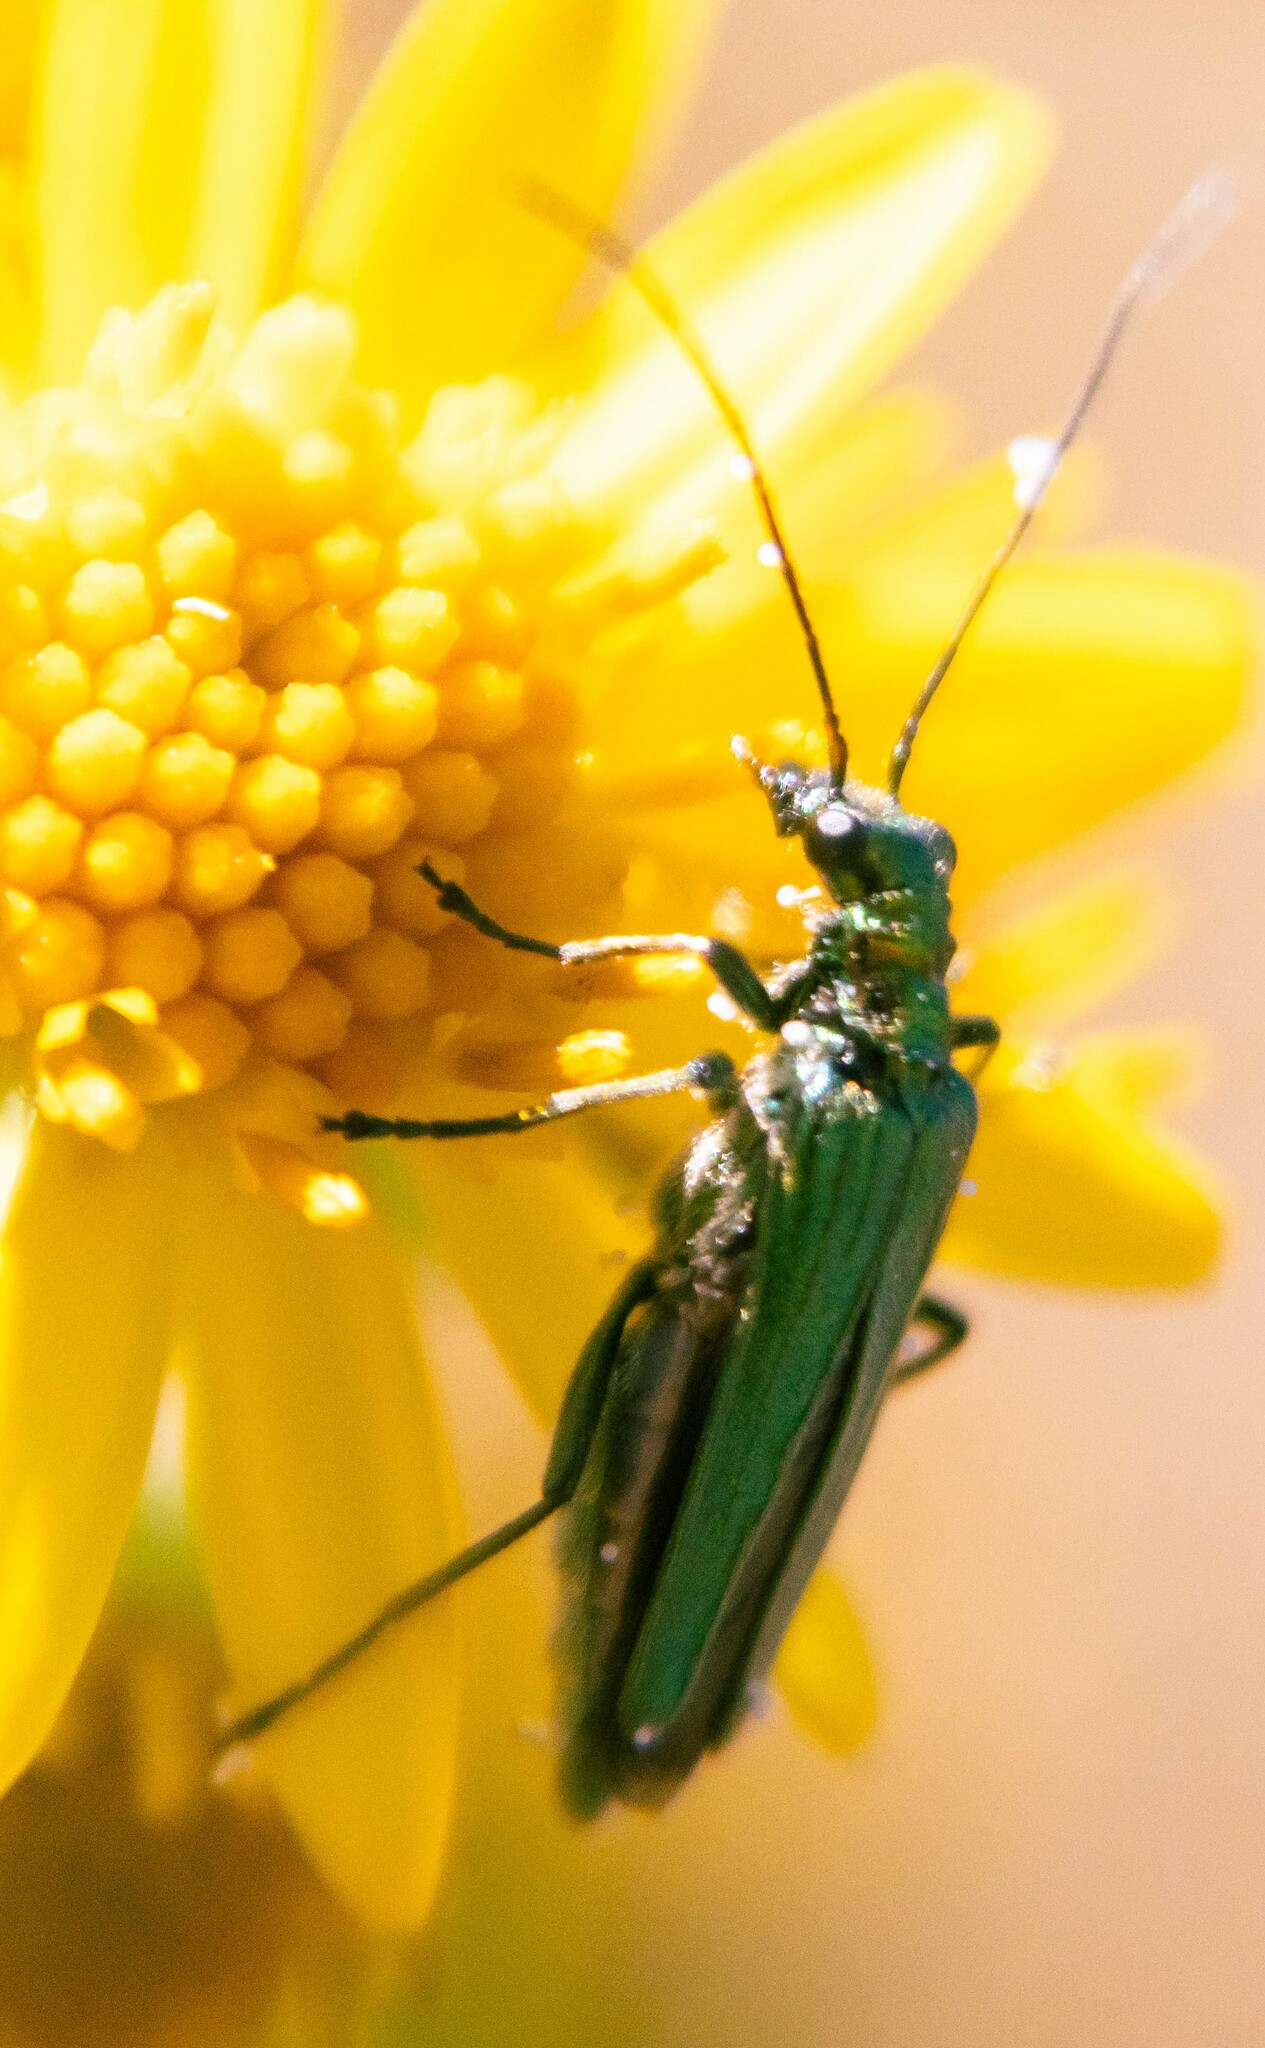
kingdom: Animalia
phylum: Arthropoda
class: Insecta
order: Coleoptera
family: Oedemeridae
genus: Oedemera
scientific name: Oedemera nobilis
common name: Swollen-thighed beetle
